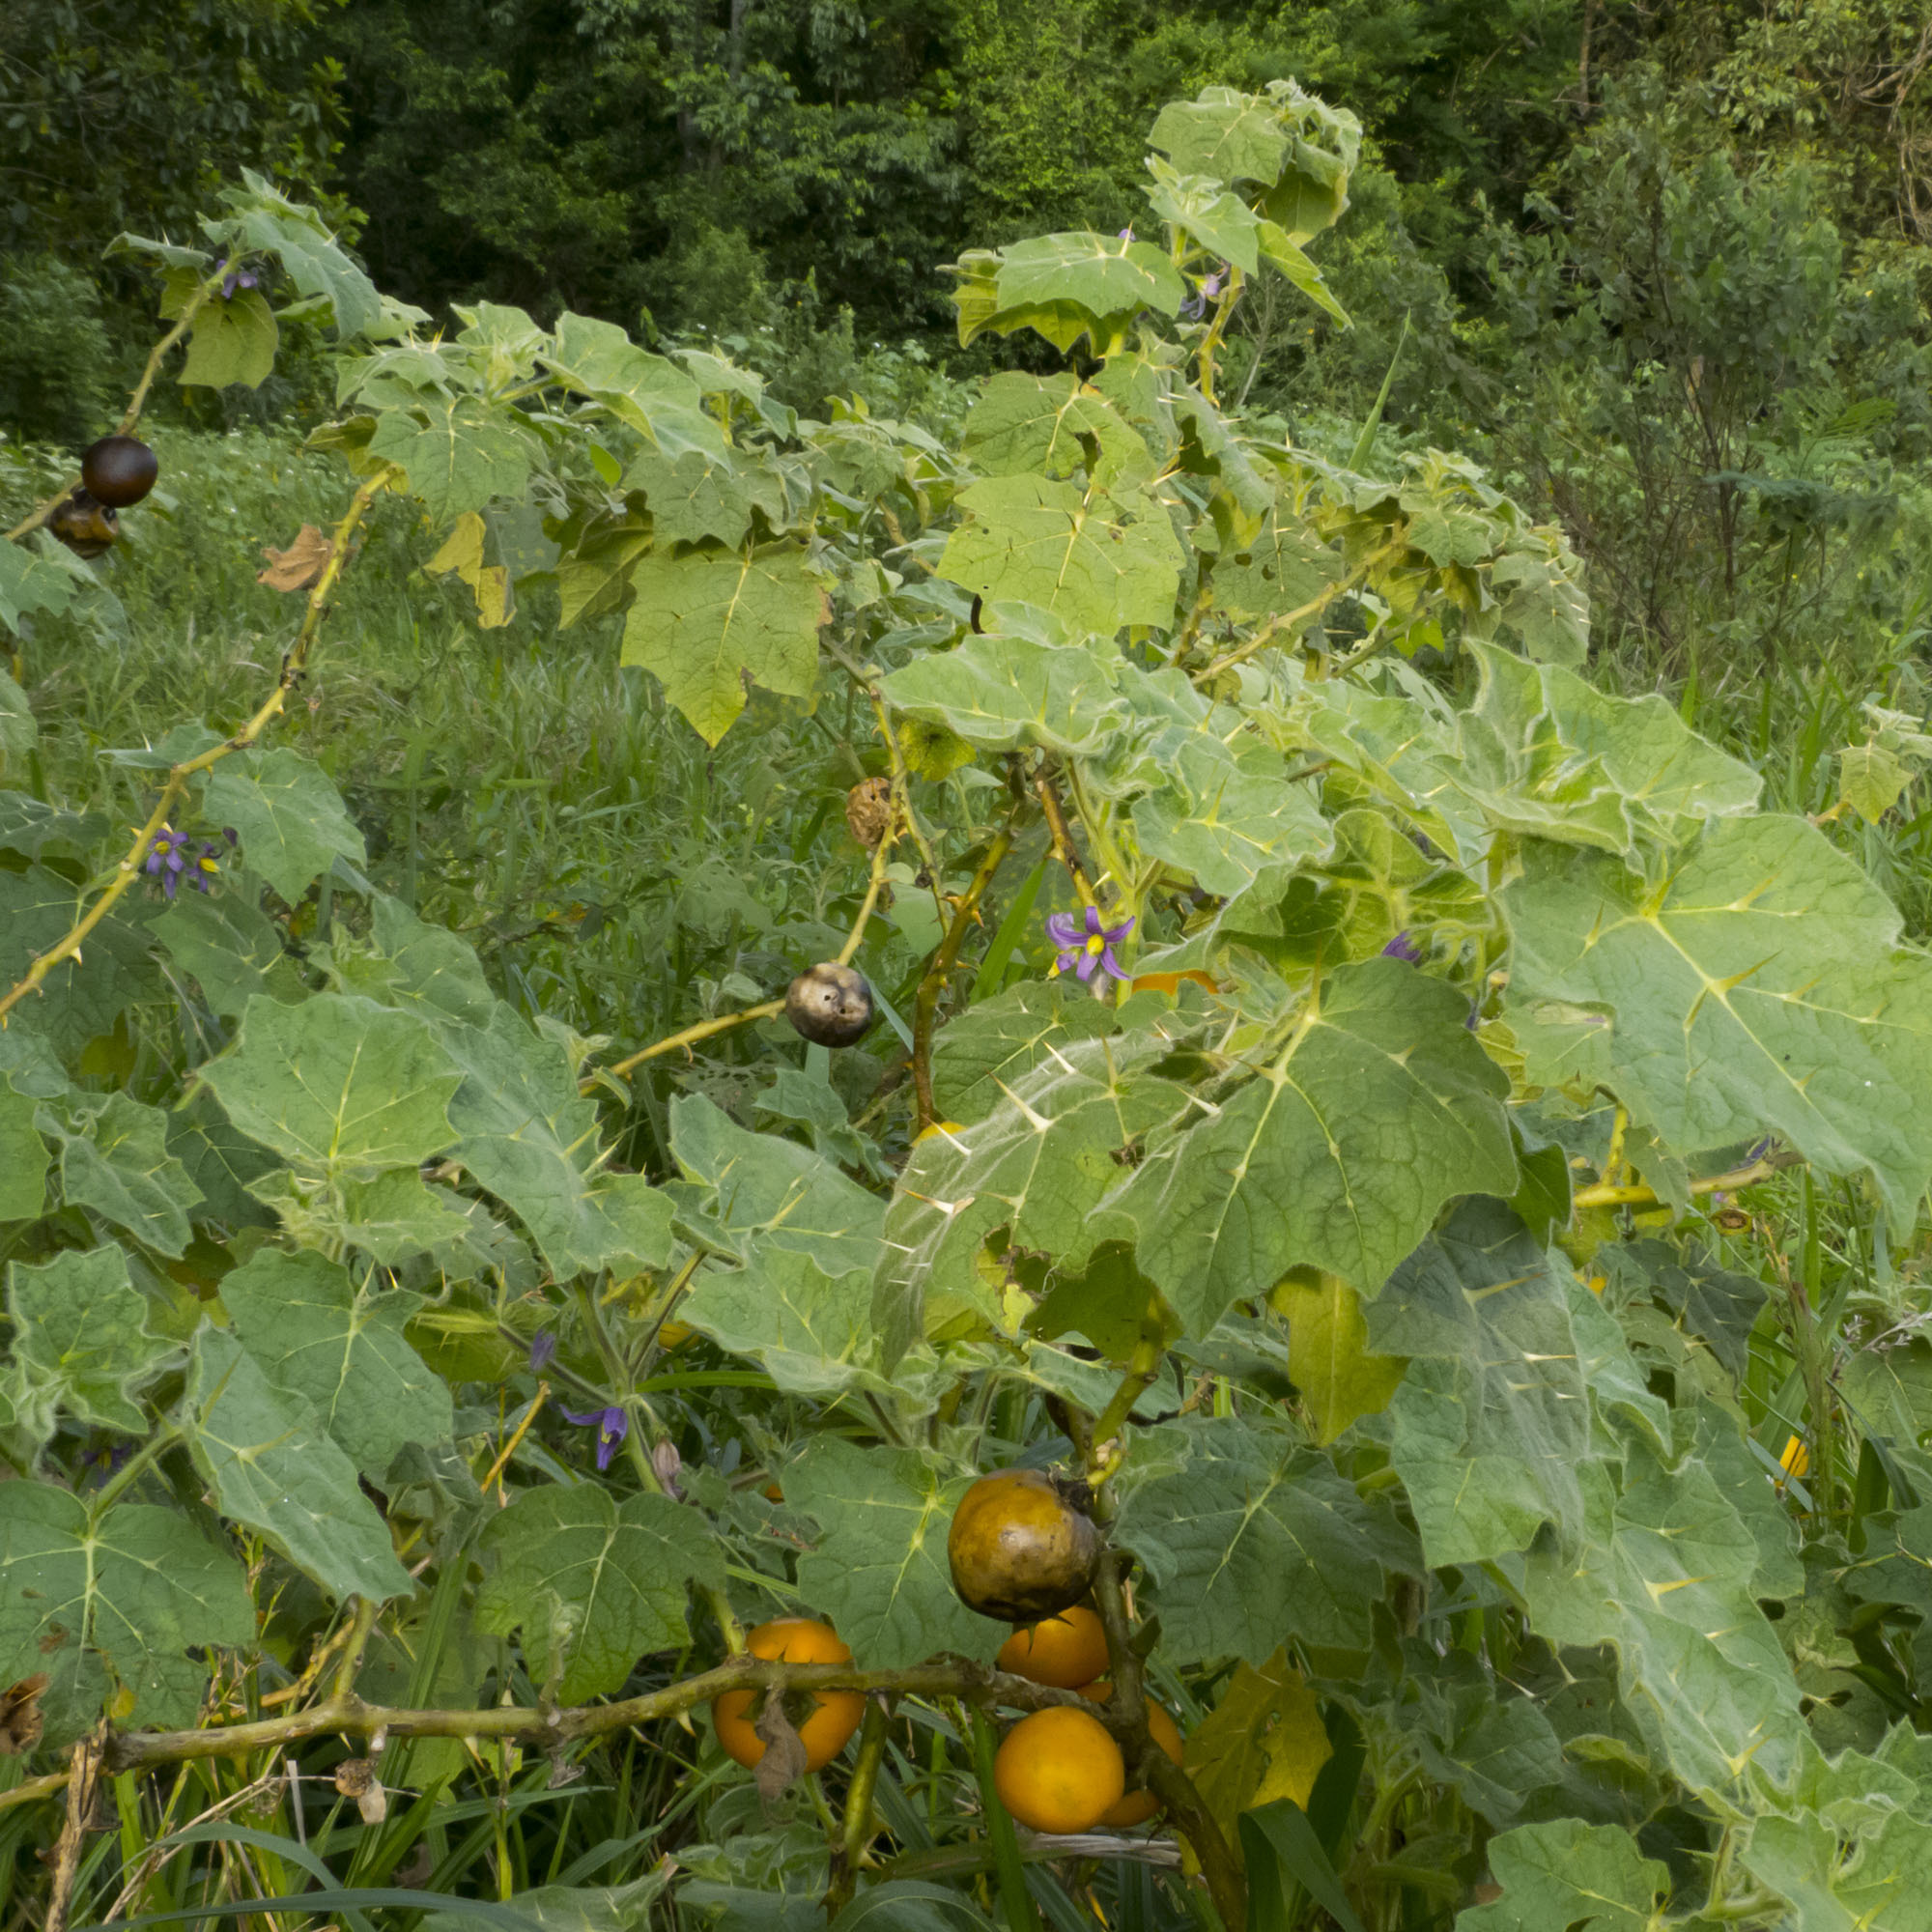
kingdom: Plantae
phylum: Tracheophyta
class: Magnoliopsida
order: Solanales
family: Solanaceae
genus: Solanum
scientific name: Solanum mammosum
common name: Nipple fruit
